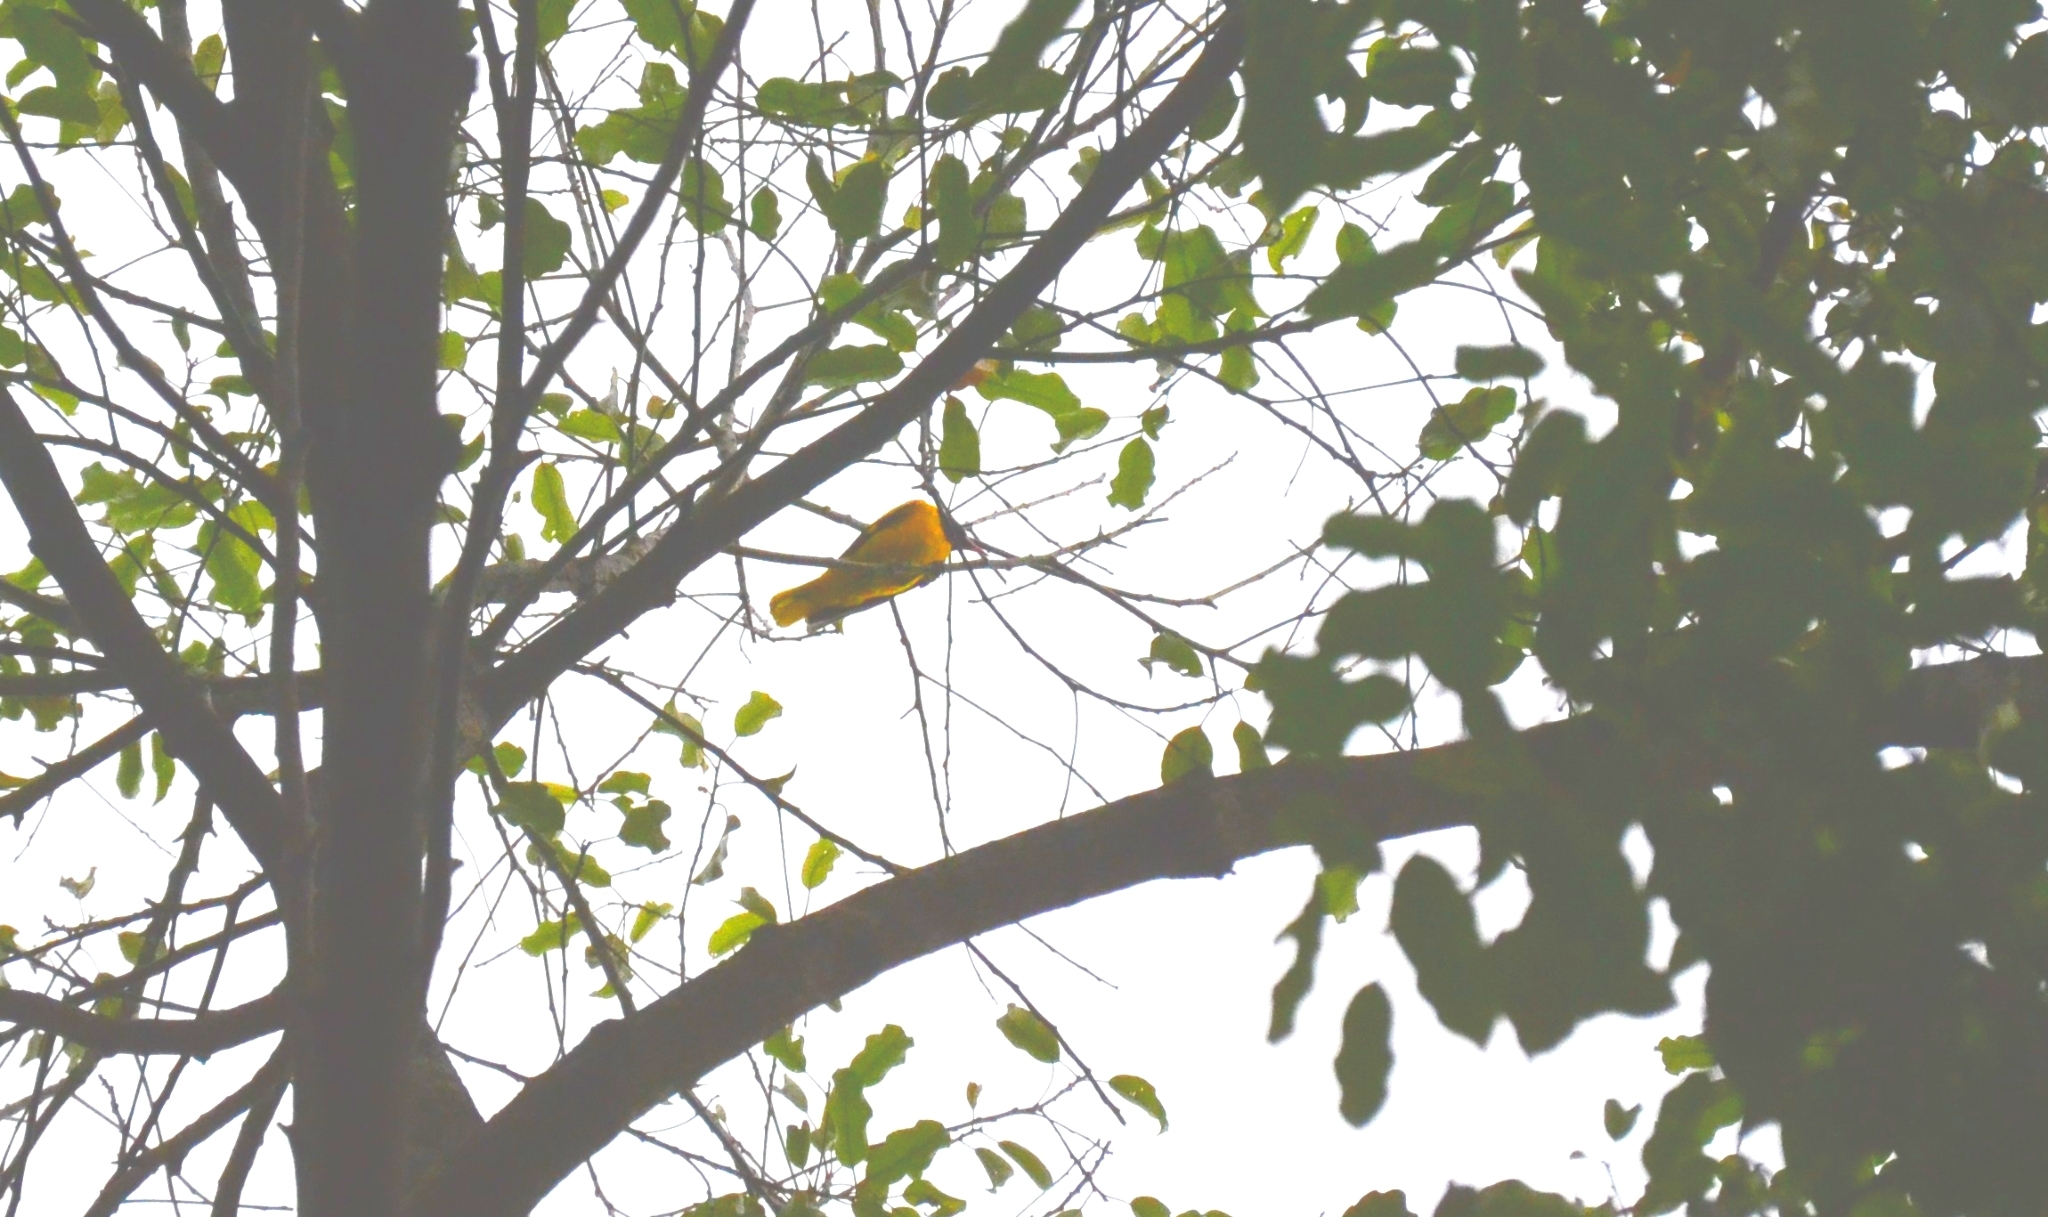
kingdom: Animalia
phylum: Chordata
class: Aves
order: Passeriformes
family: Oriolidae
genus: Oriolus
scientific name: Oriolus xanthornus
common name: Black-hooded oriole
